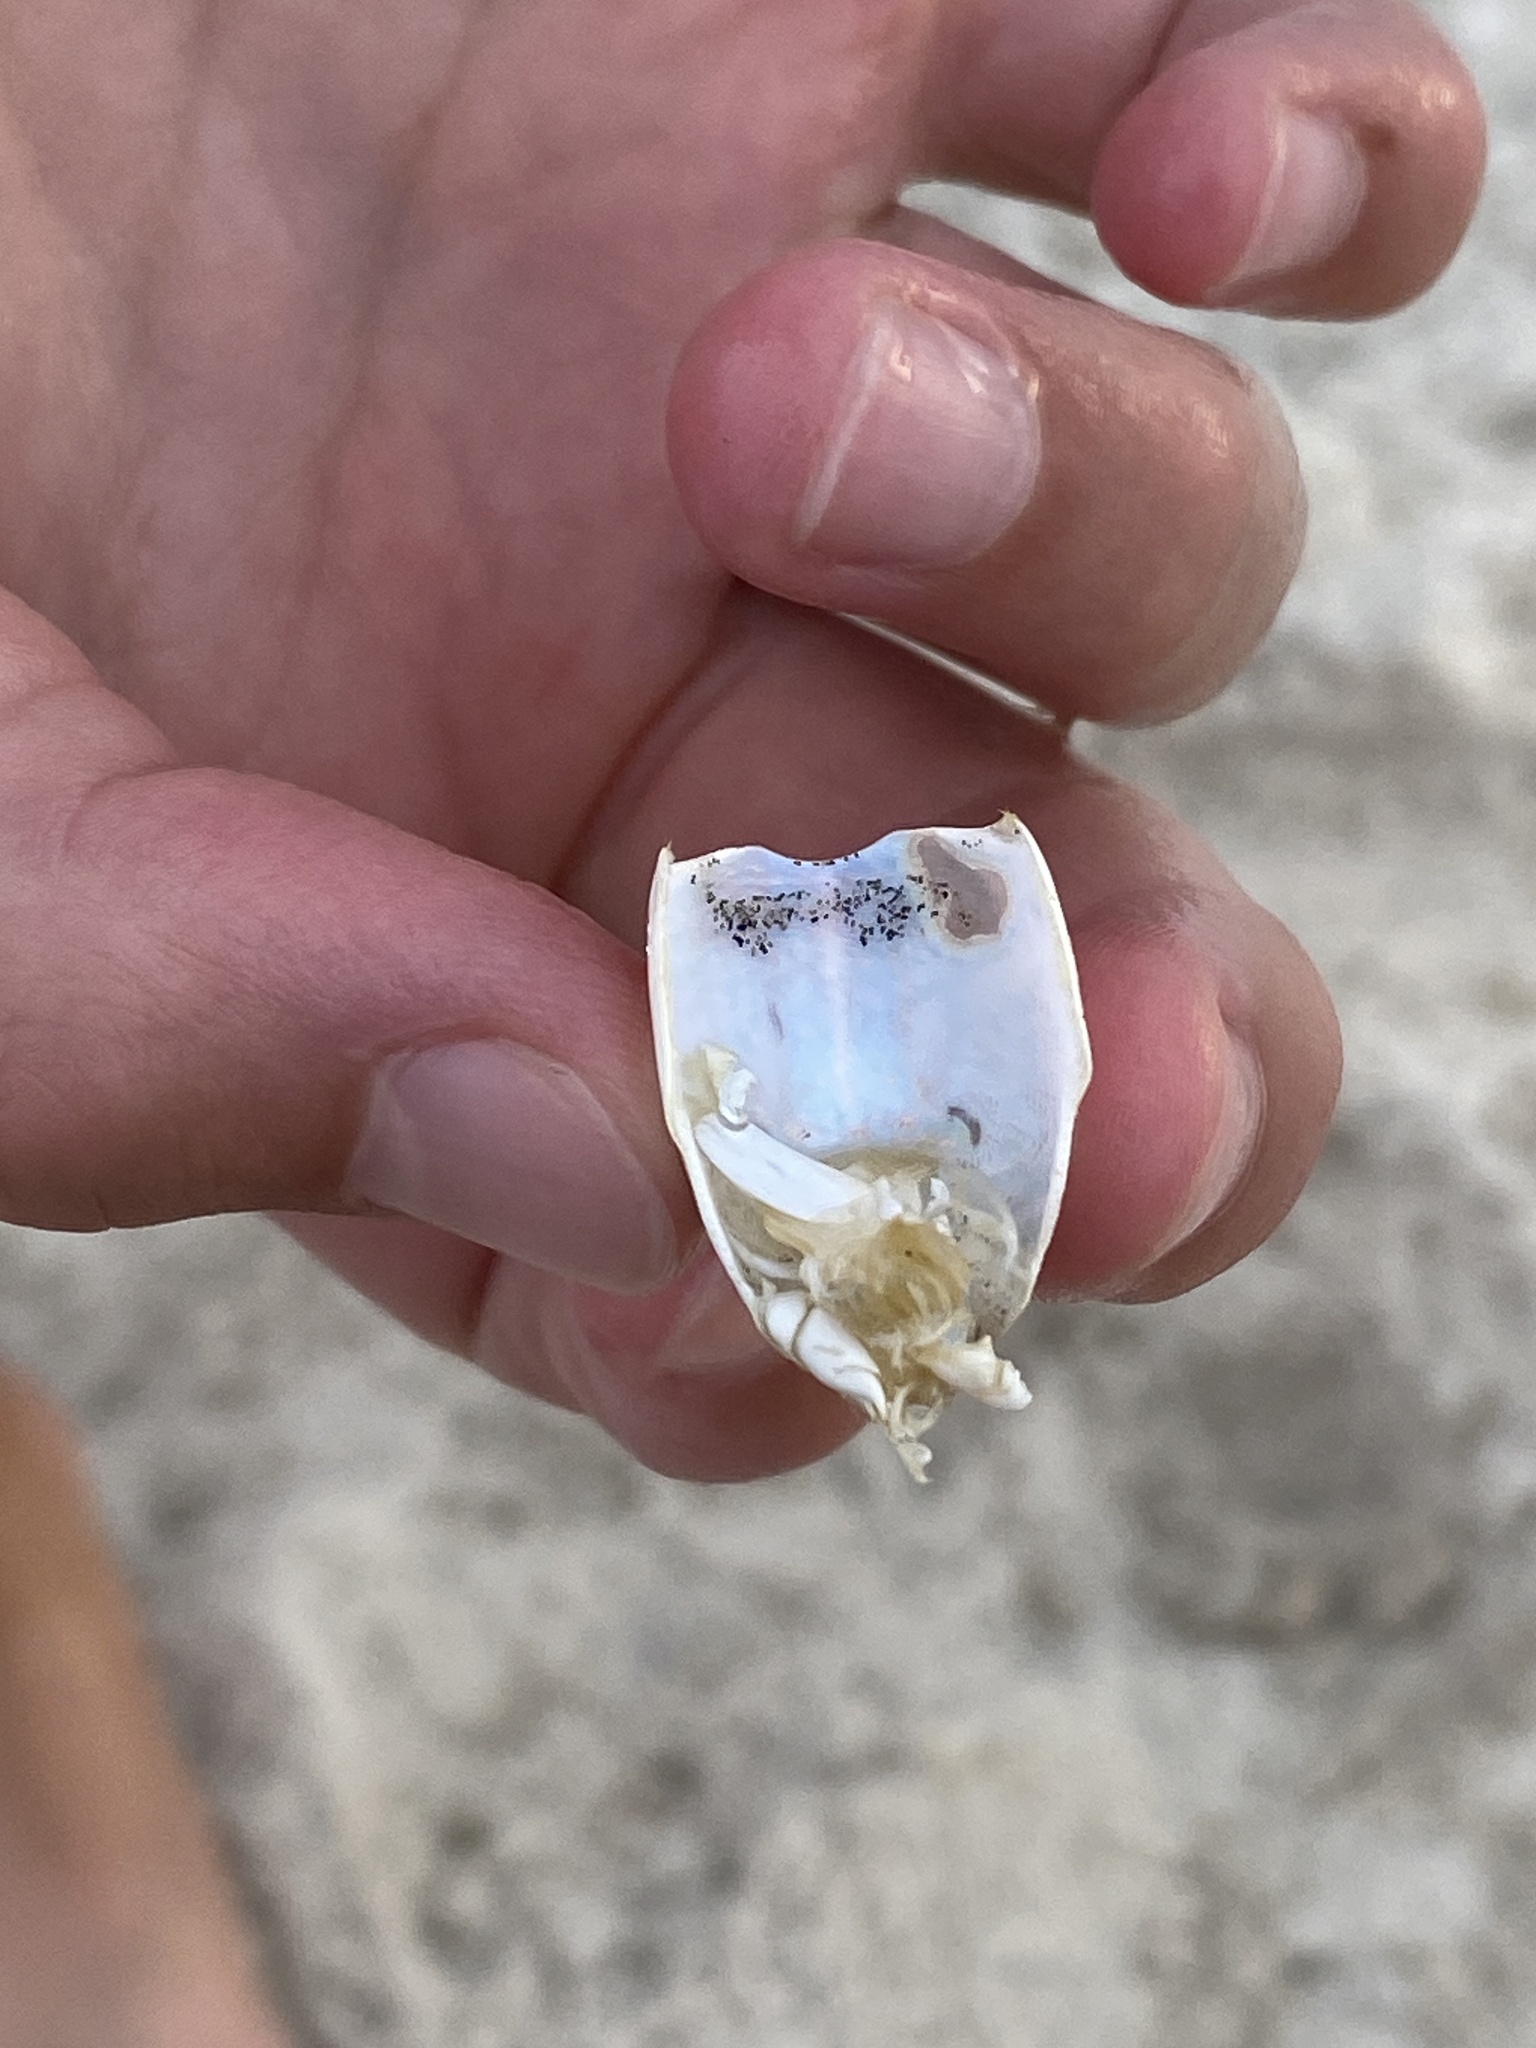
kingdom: Animalia
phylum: Arthropoda
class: Malacostraca
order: Decapoda
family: Hippidae
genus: Emerita
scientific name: Emerita talpoida
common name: Atlantic sand crab
